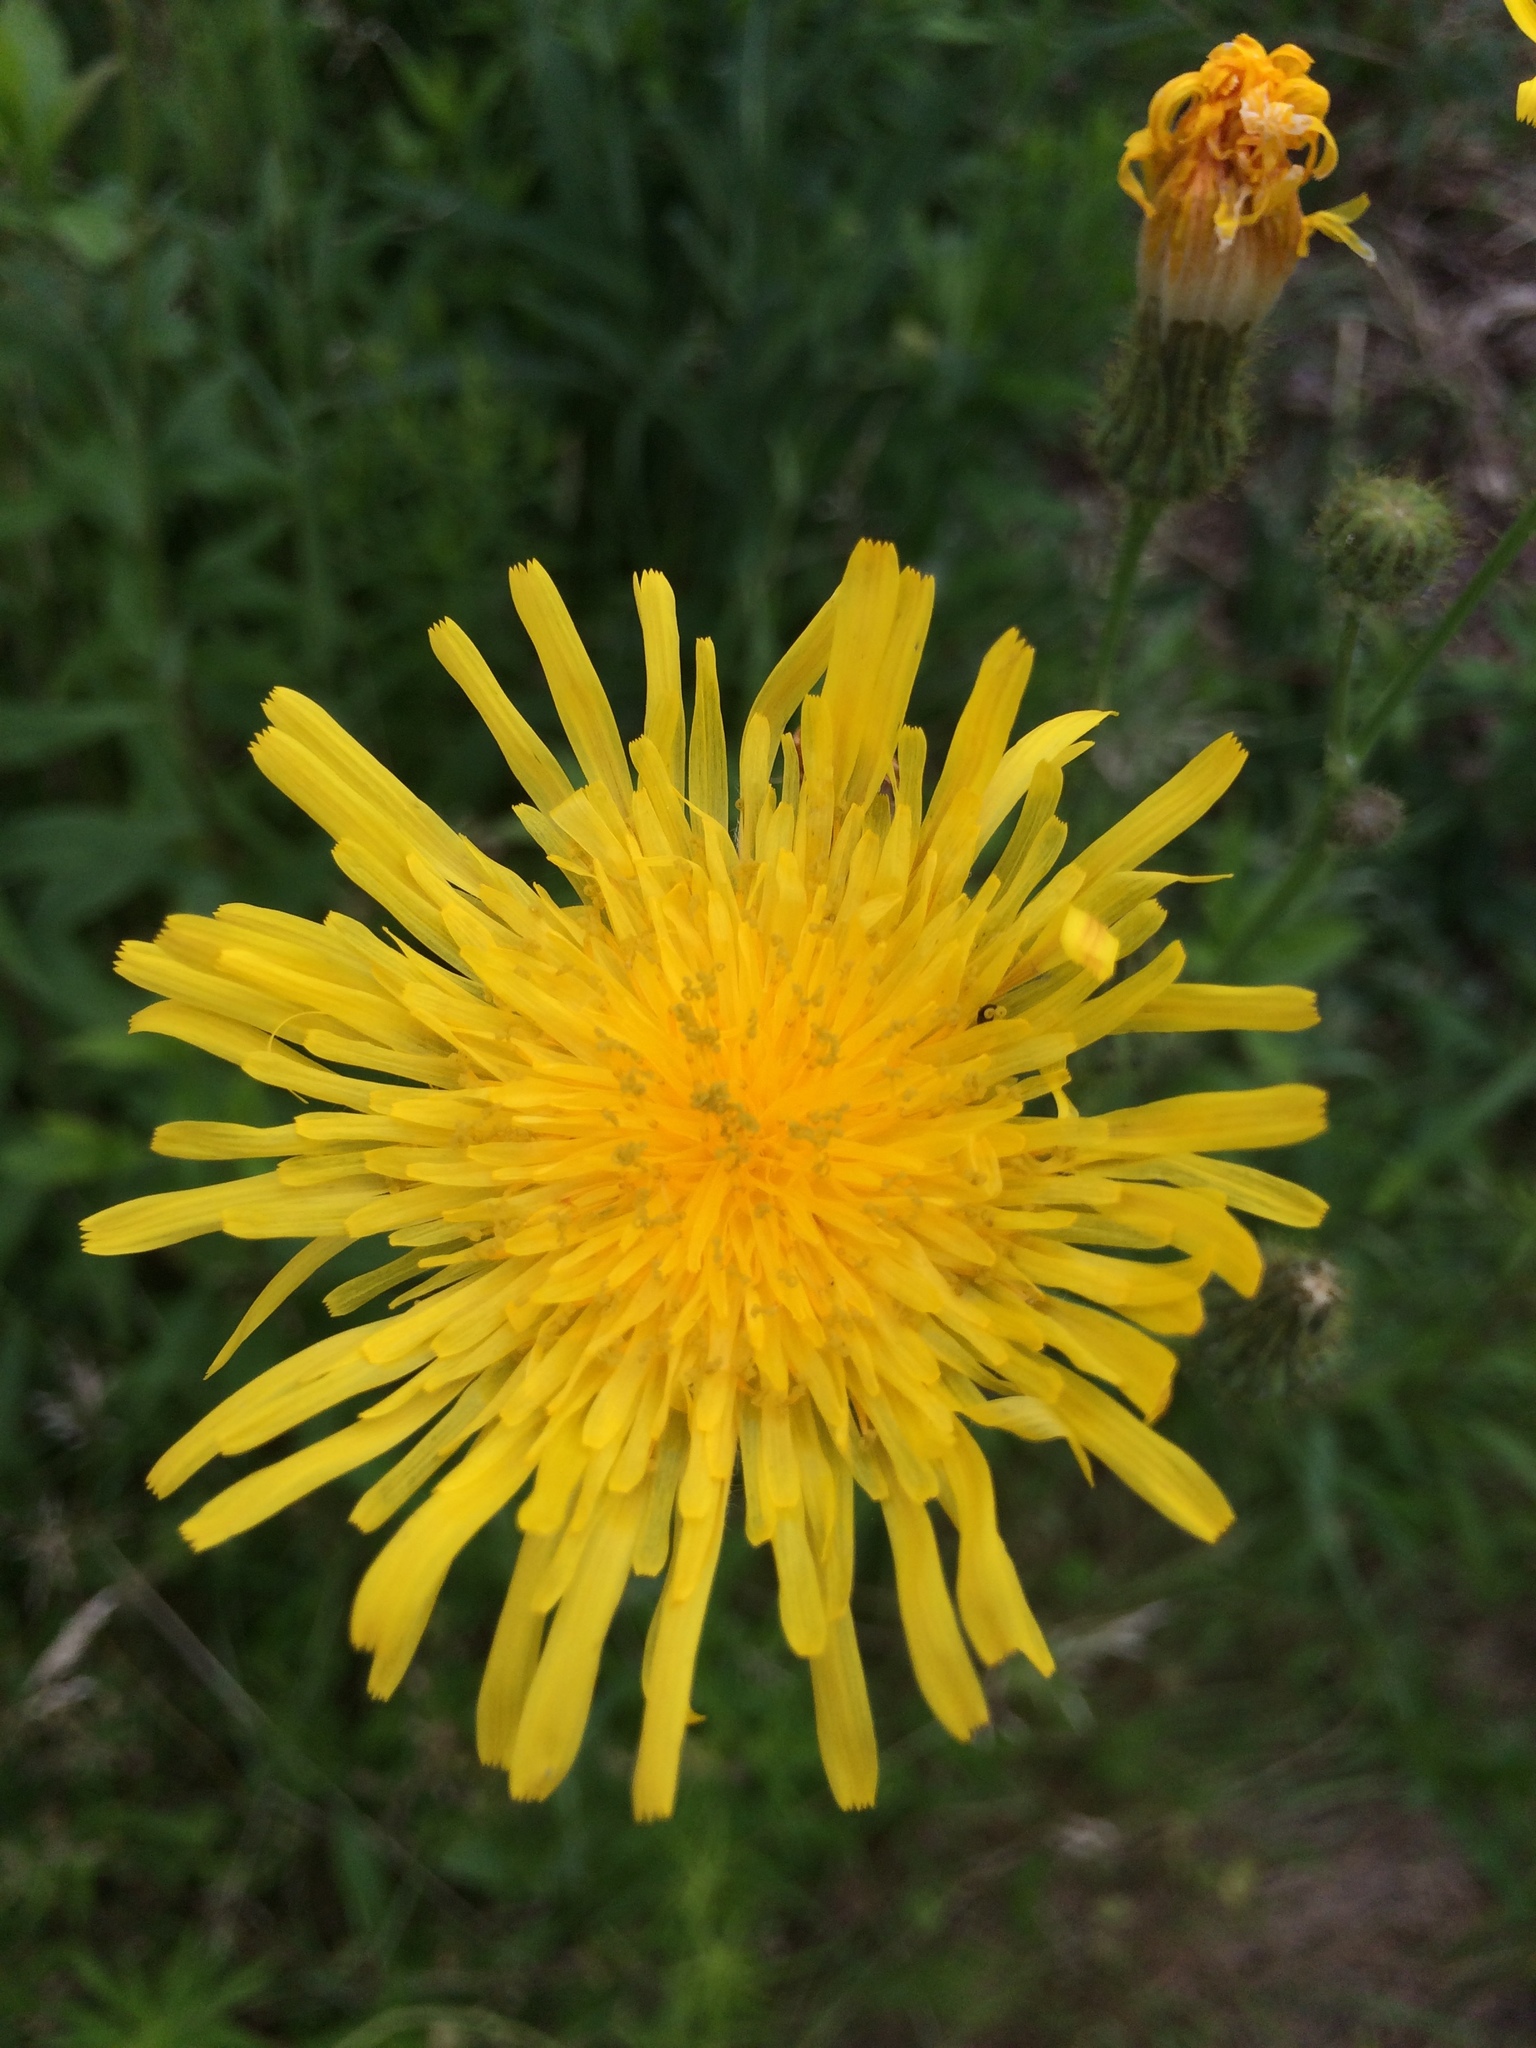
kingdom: Plantae
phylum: Tracheophyta
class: Magnoliopsida
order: Asterales
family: Asteraceae
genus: Sonchus
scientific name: Sonchus arvensis
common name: Perennial sow-thistle
